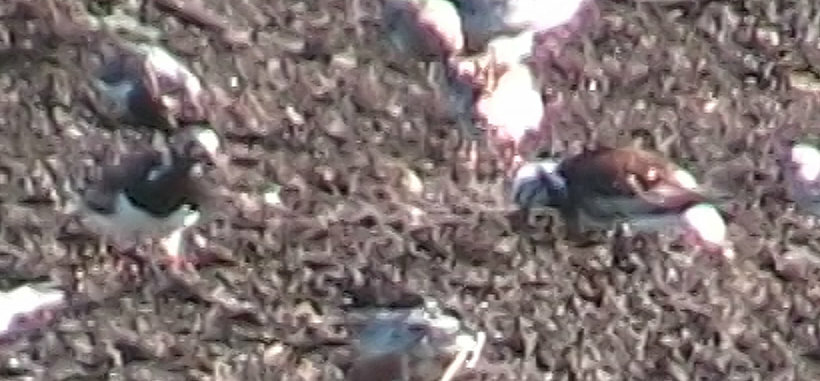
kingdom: Animalia
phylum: Chordata
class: Aves
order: Charadriiformes
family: Scolopacidae
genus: Arenaria
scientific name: Arenaria interpres
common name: Ruddy turnstone
